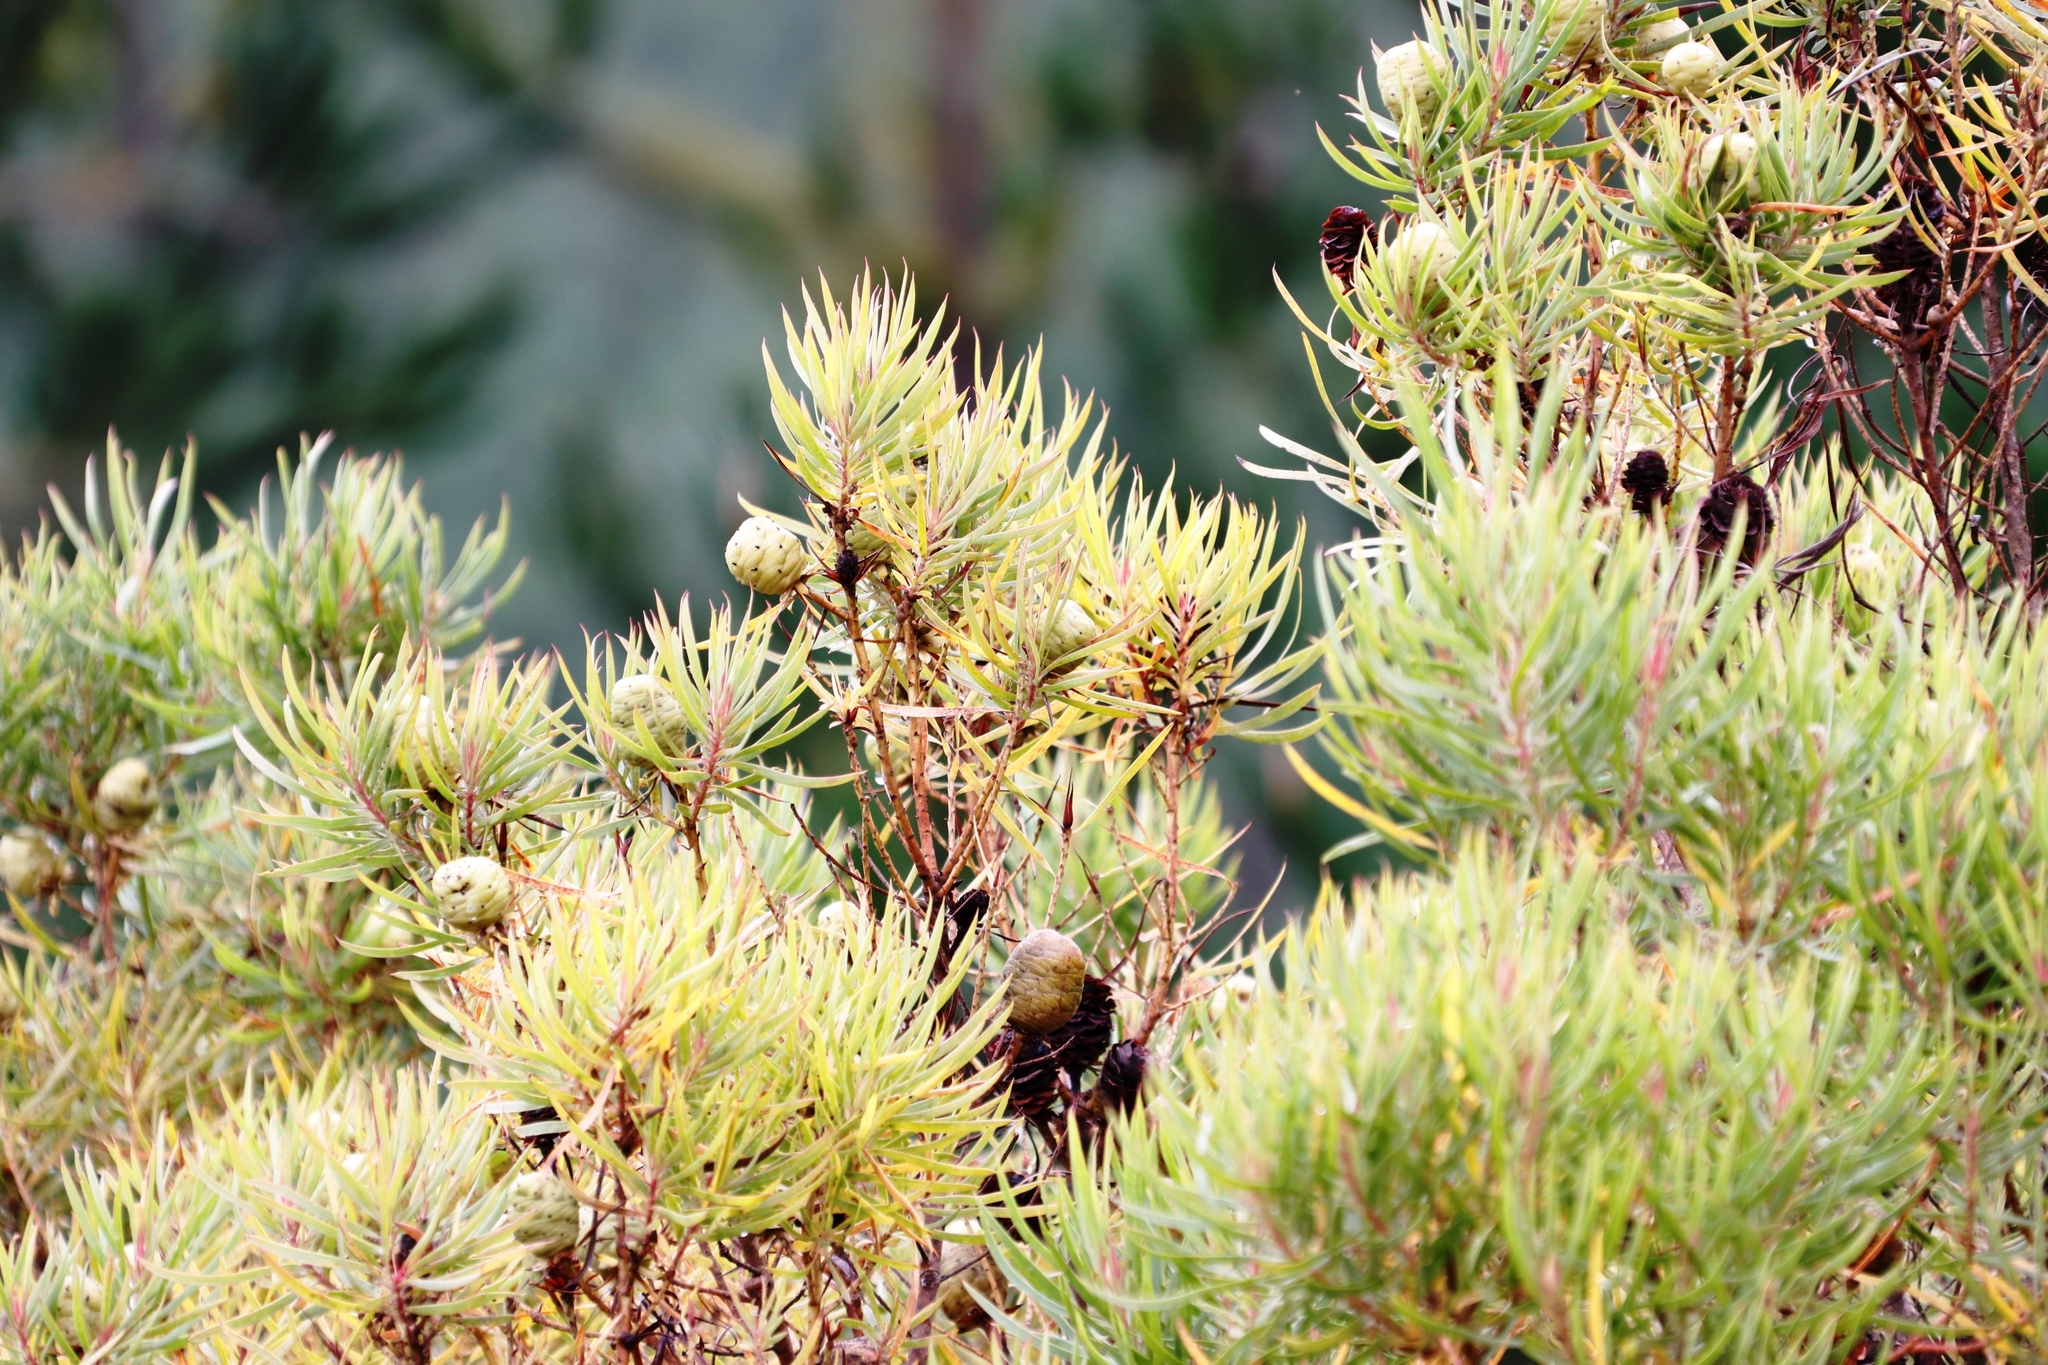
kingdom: Plantae
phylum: Tracheophyta
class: Magnoliopsida
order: Proteales
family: Proteaceae
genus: Leucadendron
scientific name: Leucadendron salicifolium
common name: Common stream conebush
